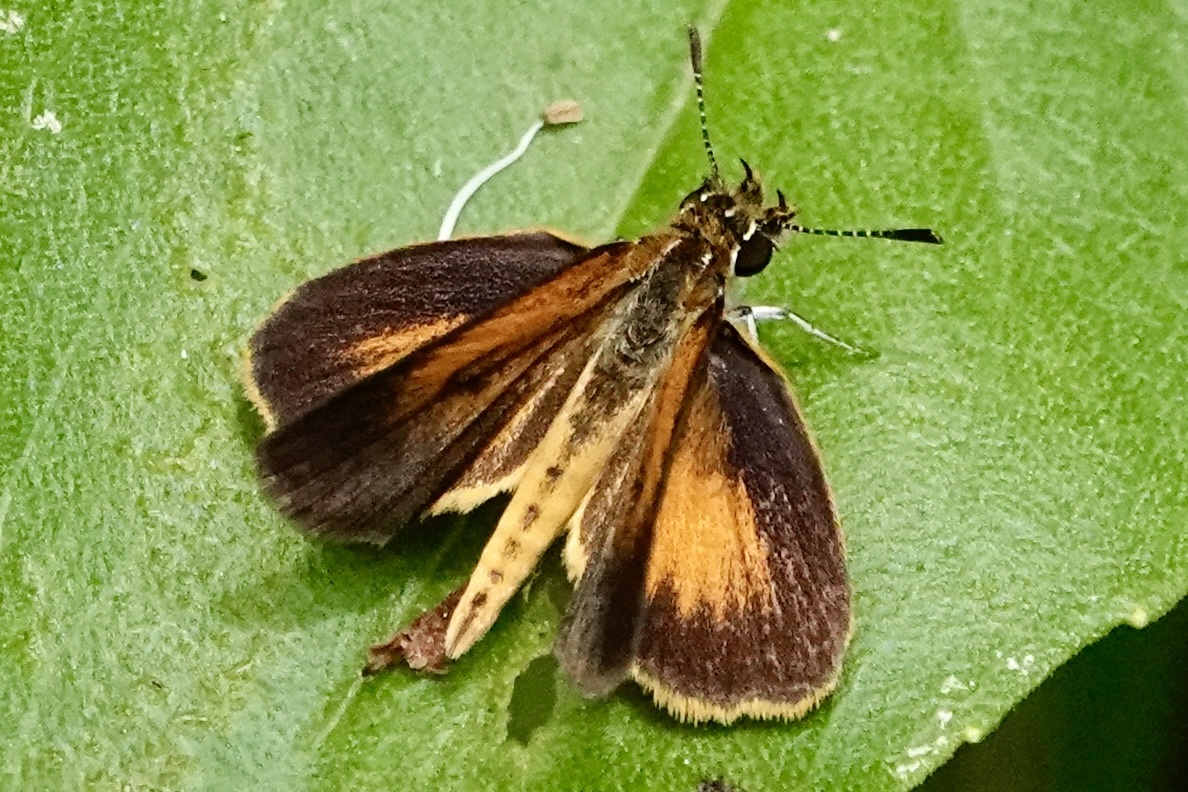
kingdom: Animalia
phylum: Arthropoda
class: Insecta
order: Lepidoptera
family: Hesperiidae
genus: Ancyloxypha
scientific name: Ancyloxypha numitor
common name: Least skipper
